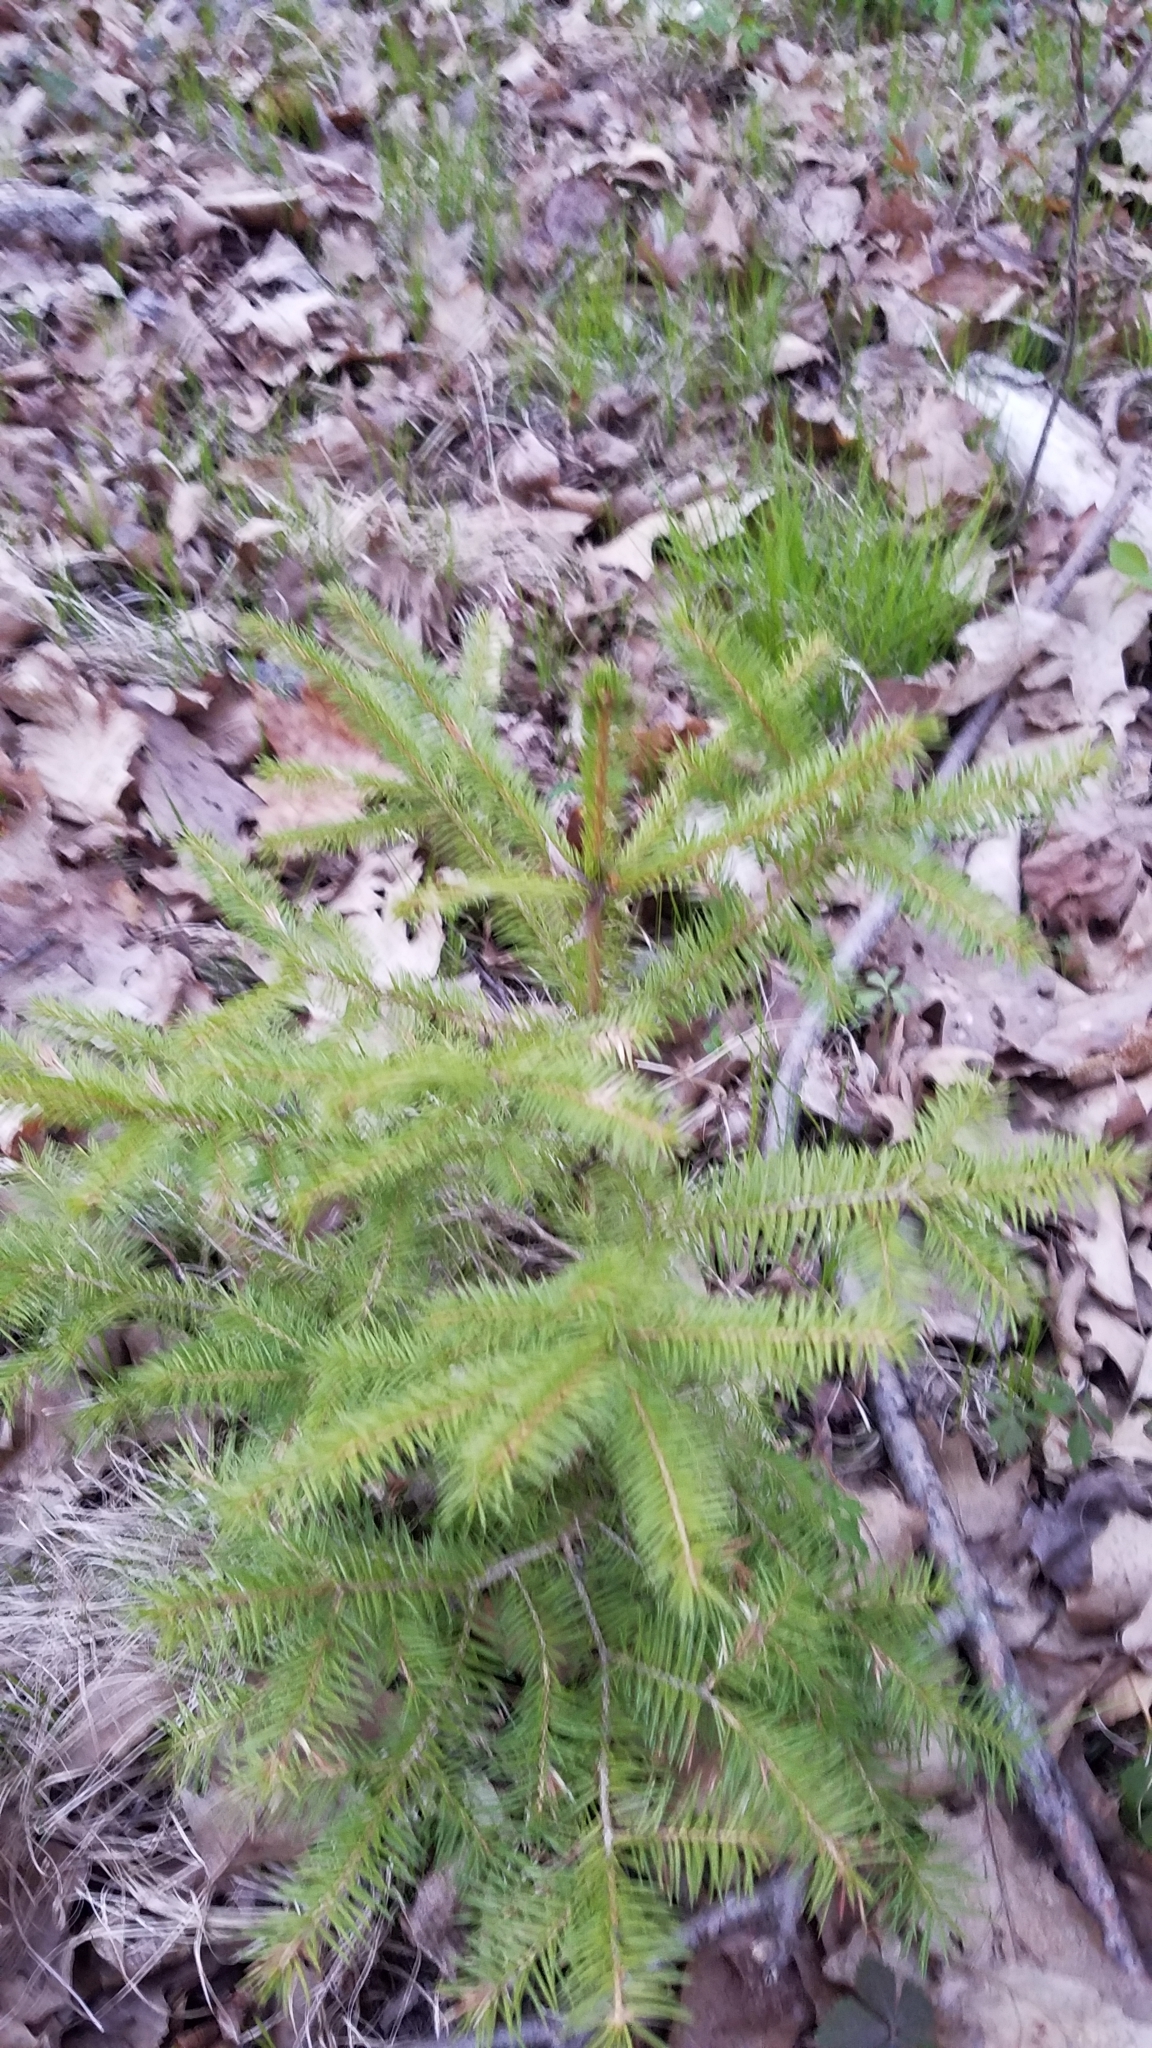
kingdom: Plantae
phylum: Tracheophyta
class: Pinopsida
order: Pinales
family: Pinaceae
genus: Picea
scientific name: Picea glauca
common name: White spruce
